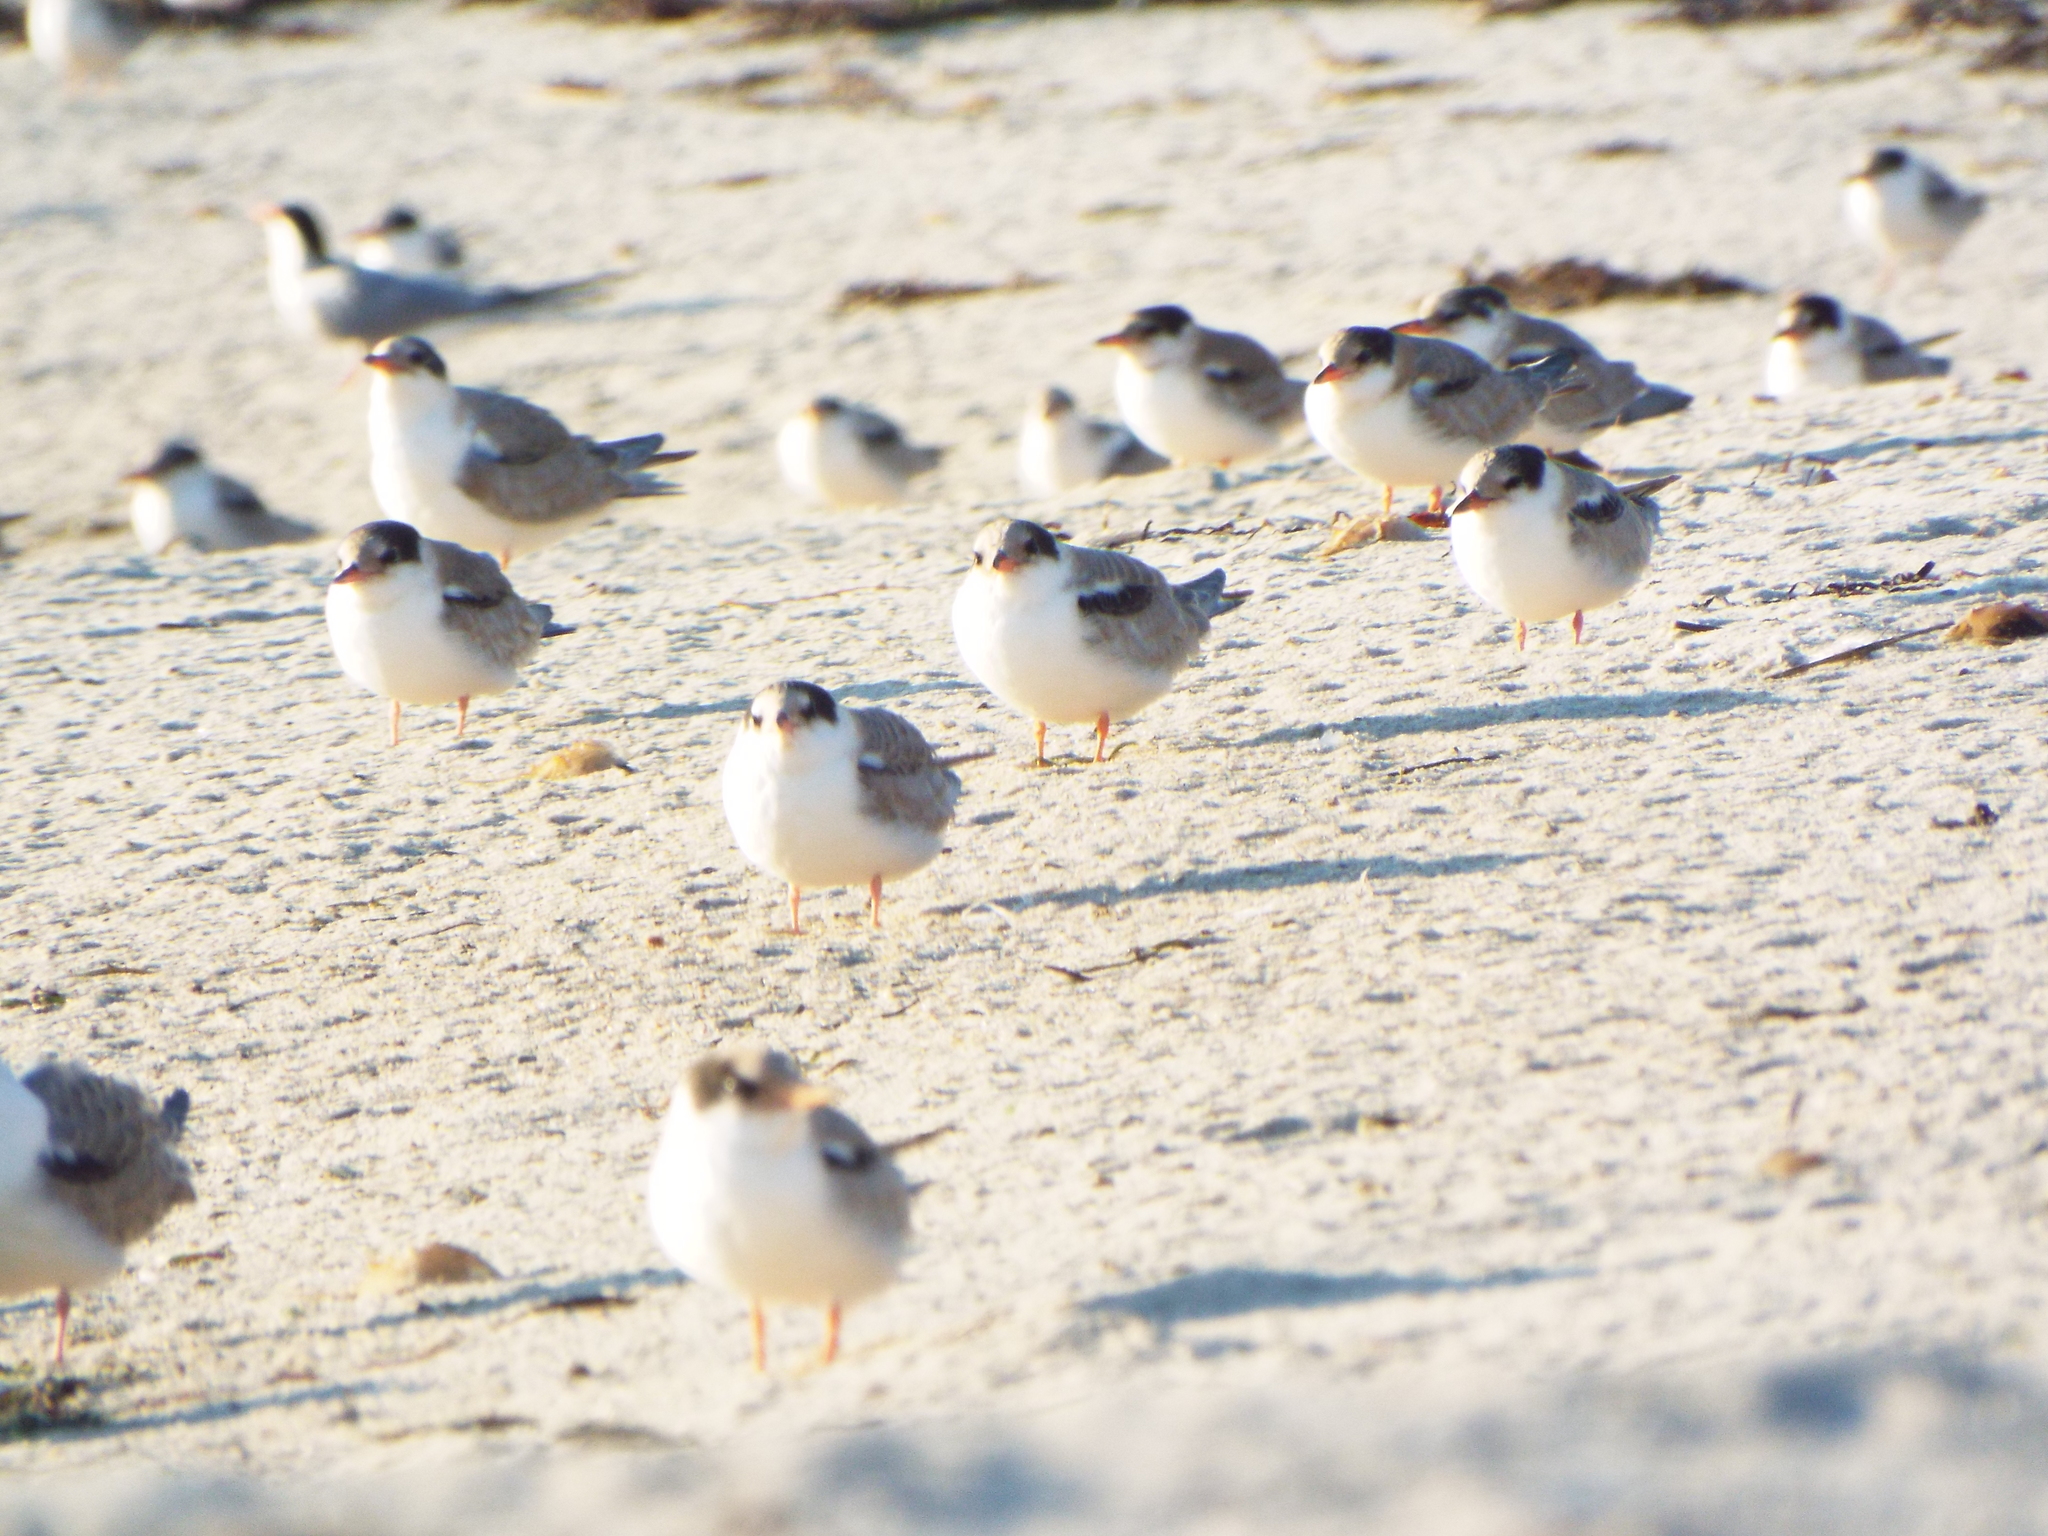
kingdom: Animalia
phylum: Chordata
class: Aves
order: Charadriiformes
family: Laridae
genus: Sterna
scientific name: Sterna hirundo
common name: Common tern
